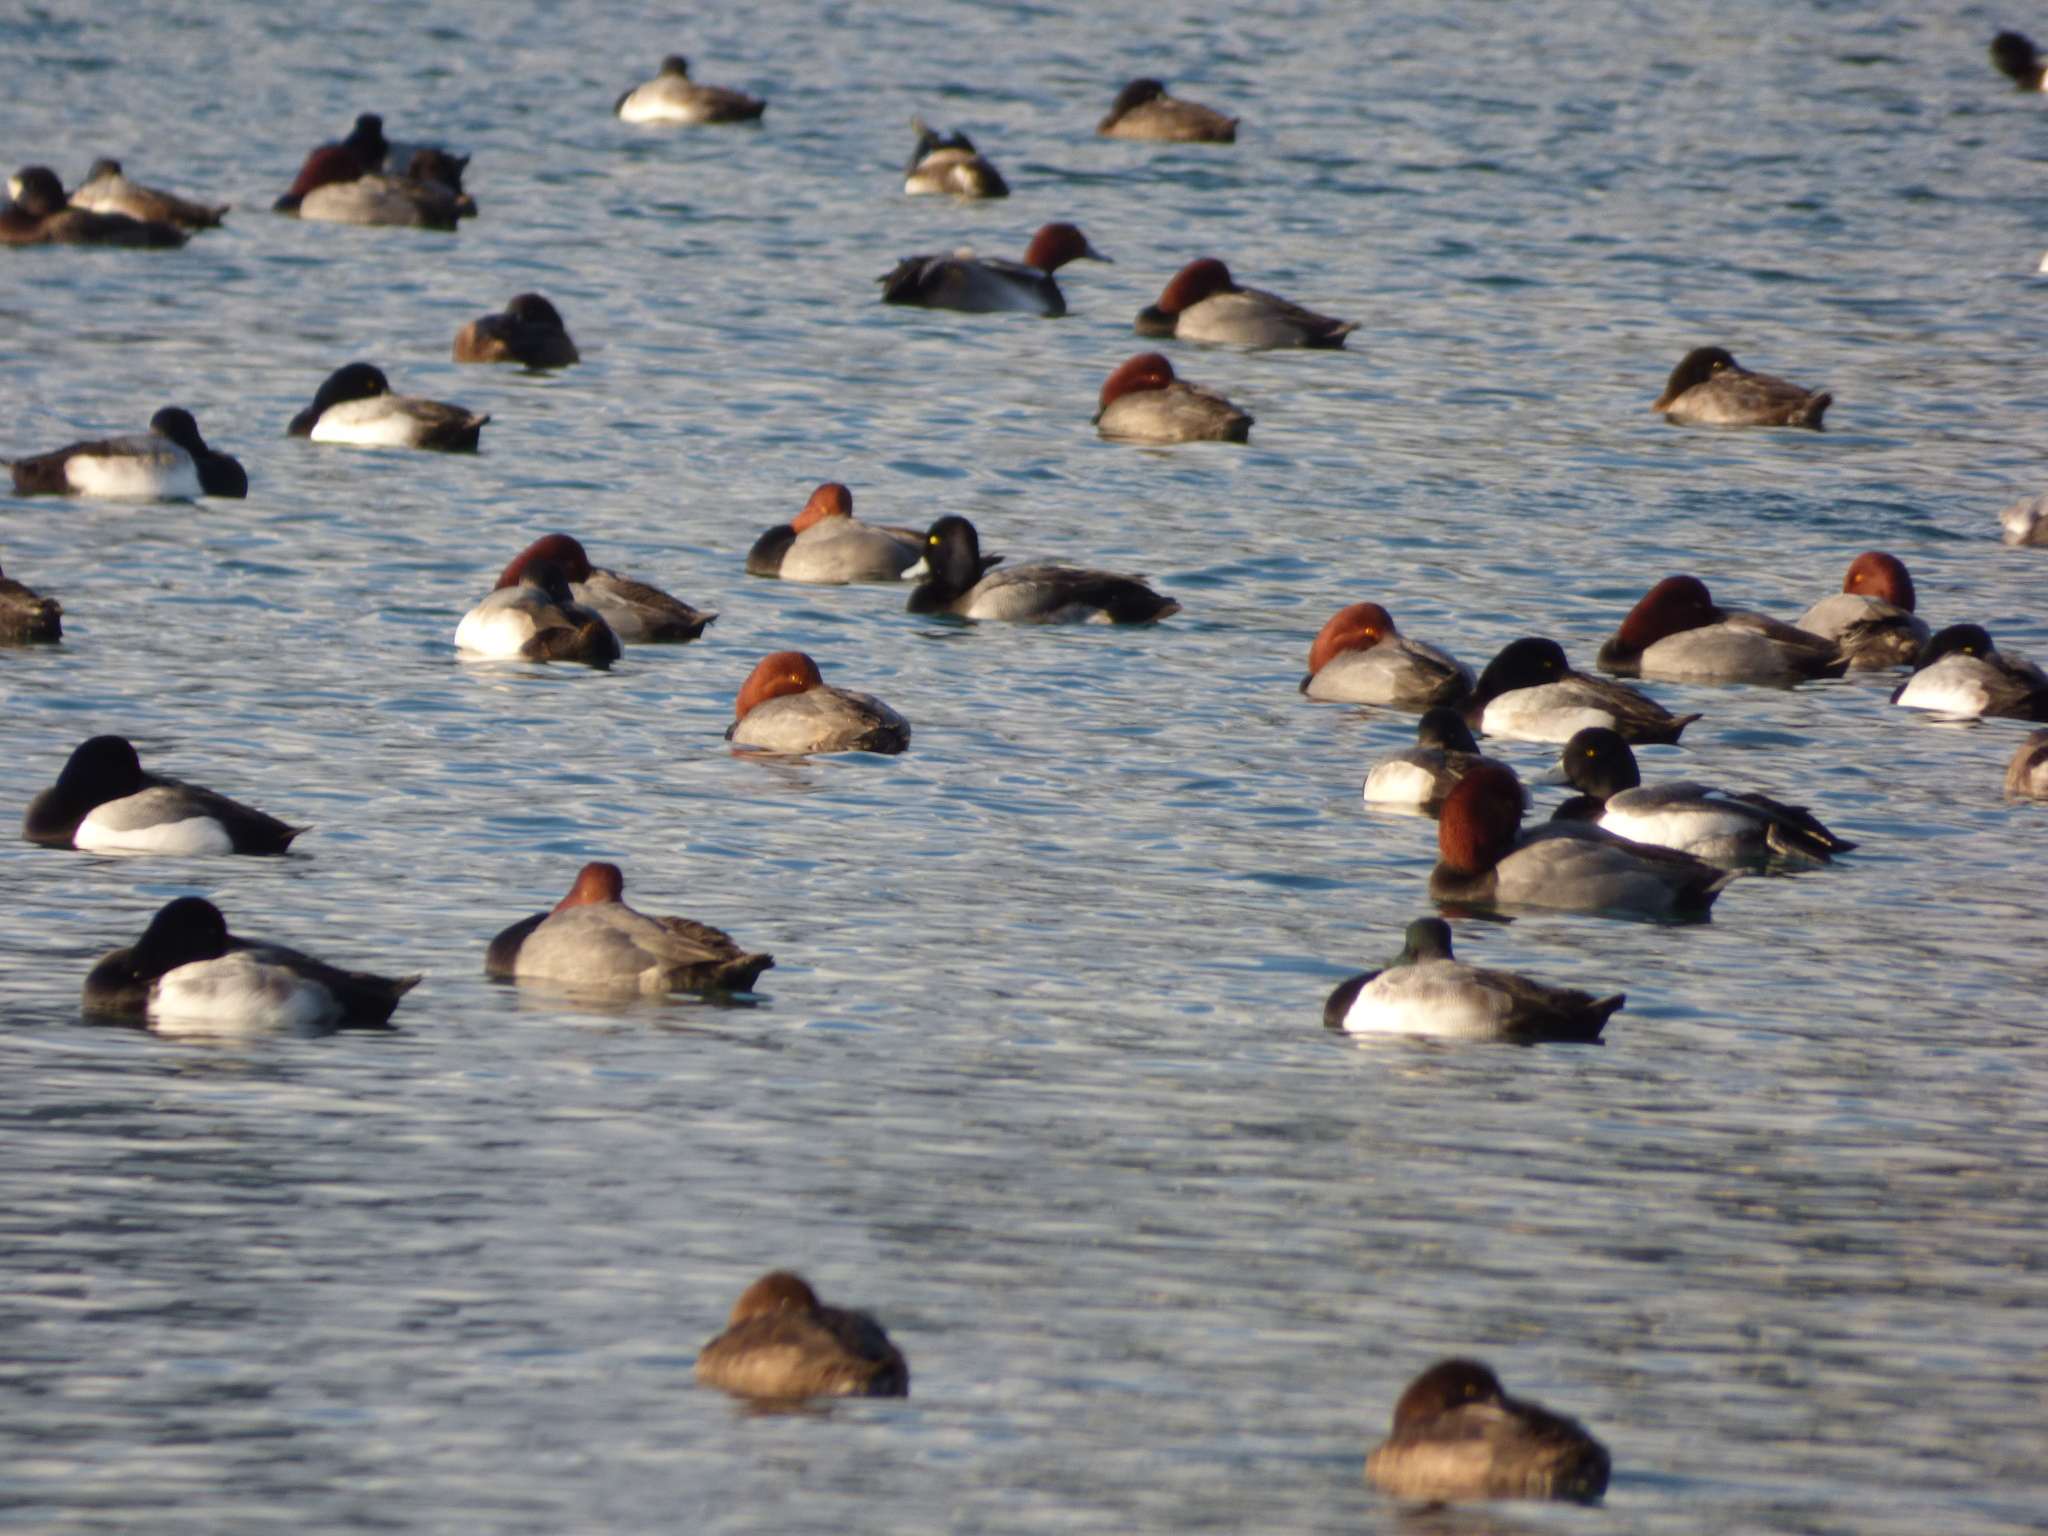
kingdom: Animalia
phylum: Chordata
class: Aves
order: Anseriformes
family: Anatidae
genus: Aythya
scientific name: Aythya americana
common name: Redhead
